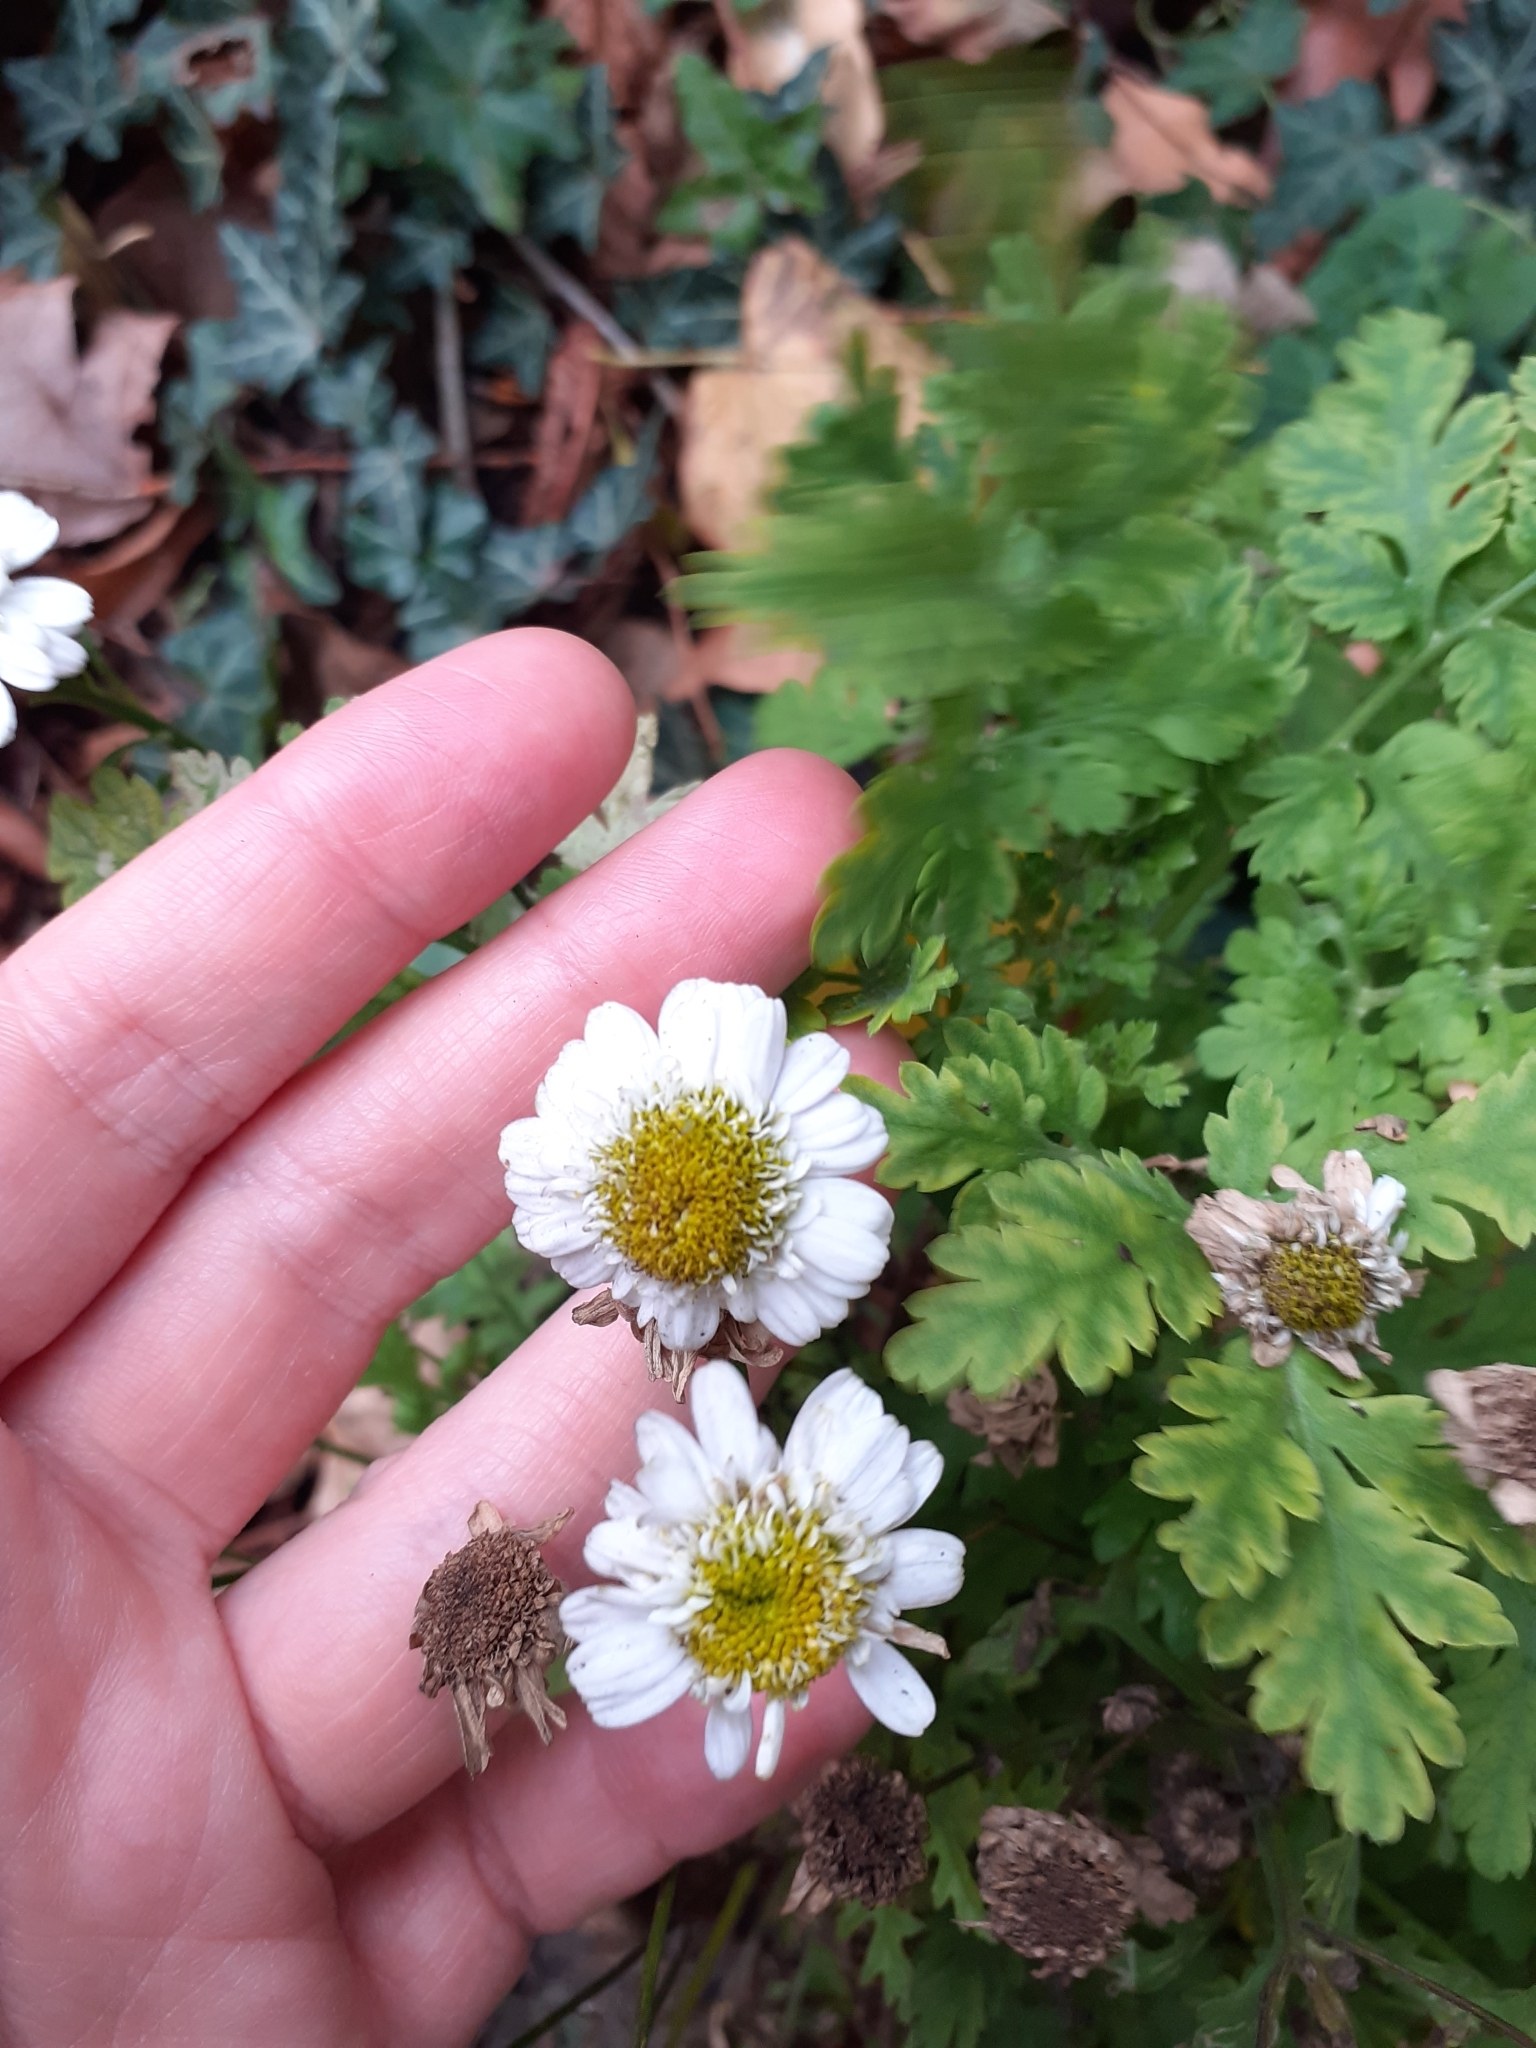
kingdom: Plantae
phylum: Tracheophyta
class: Magnoliopsida
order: Asterales
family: Asteraceae
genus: Tanacetum
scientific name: Tanacetum parthenium
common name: Feverfew
